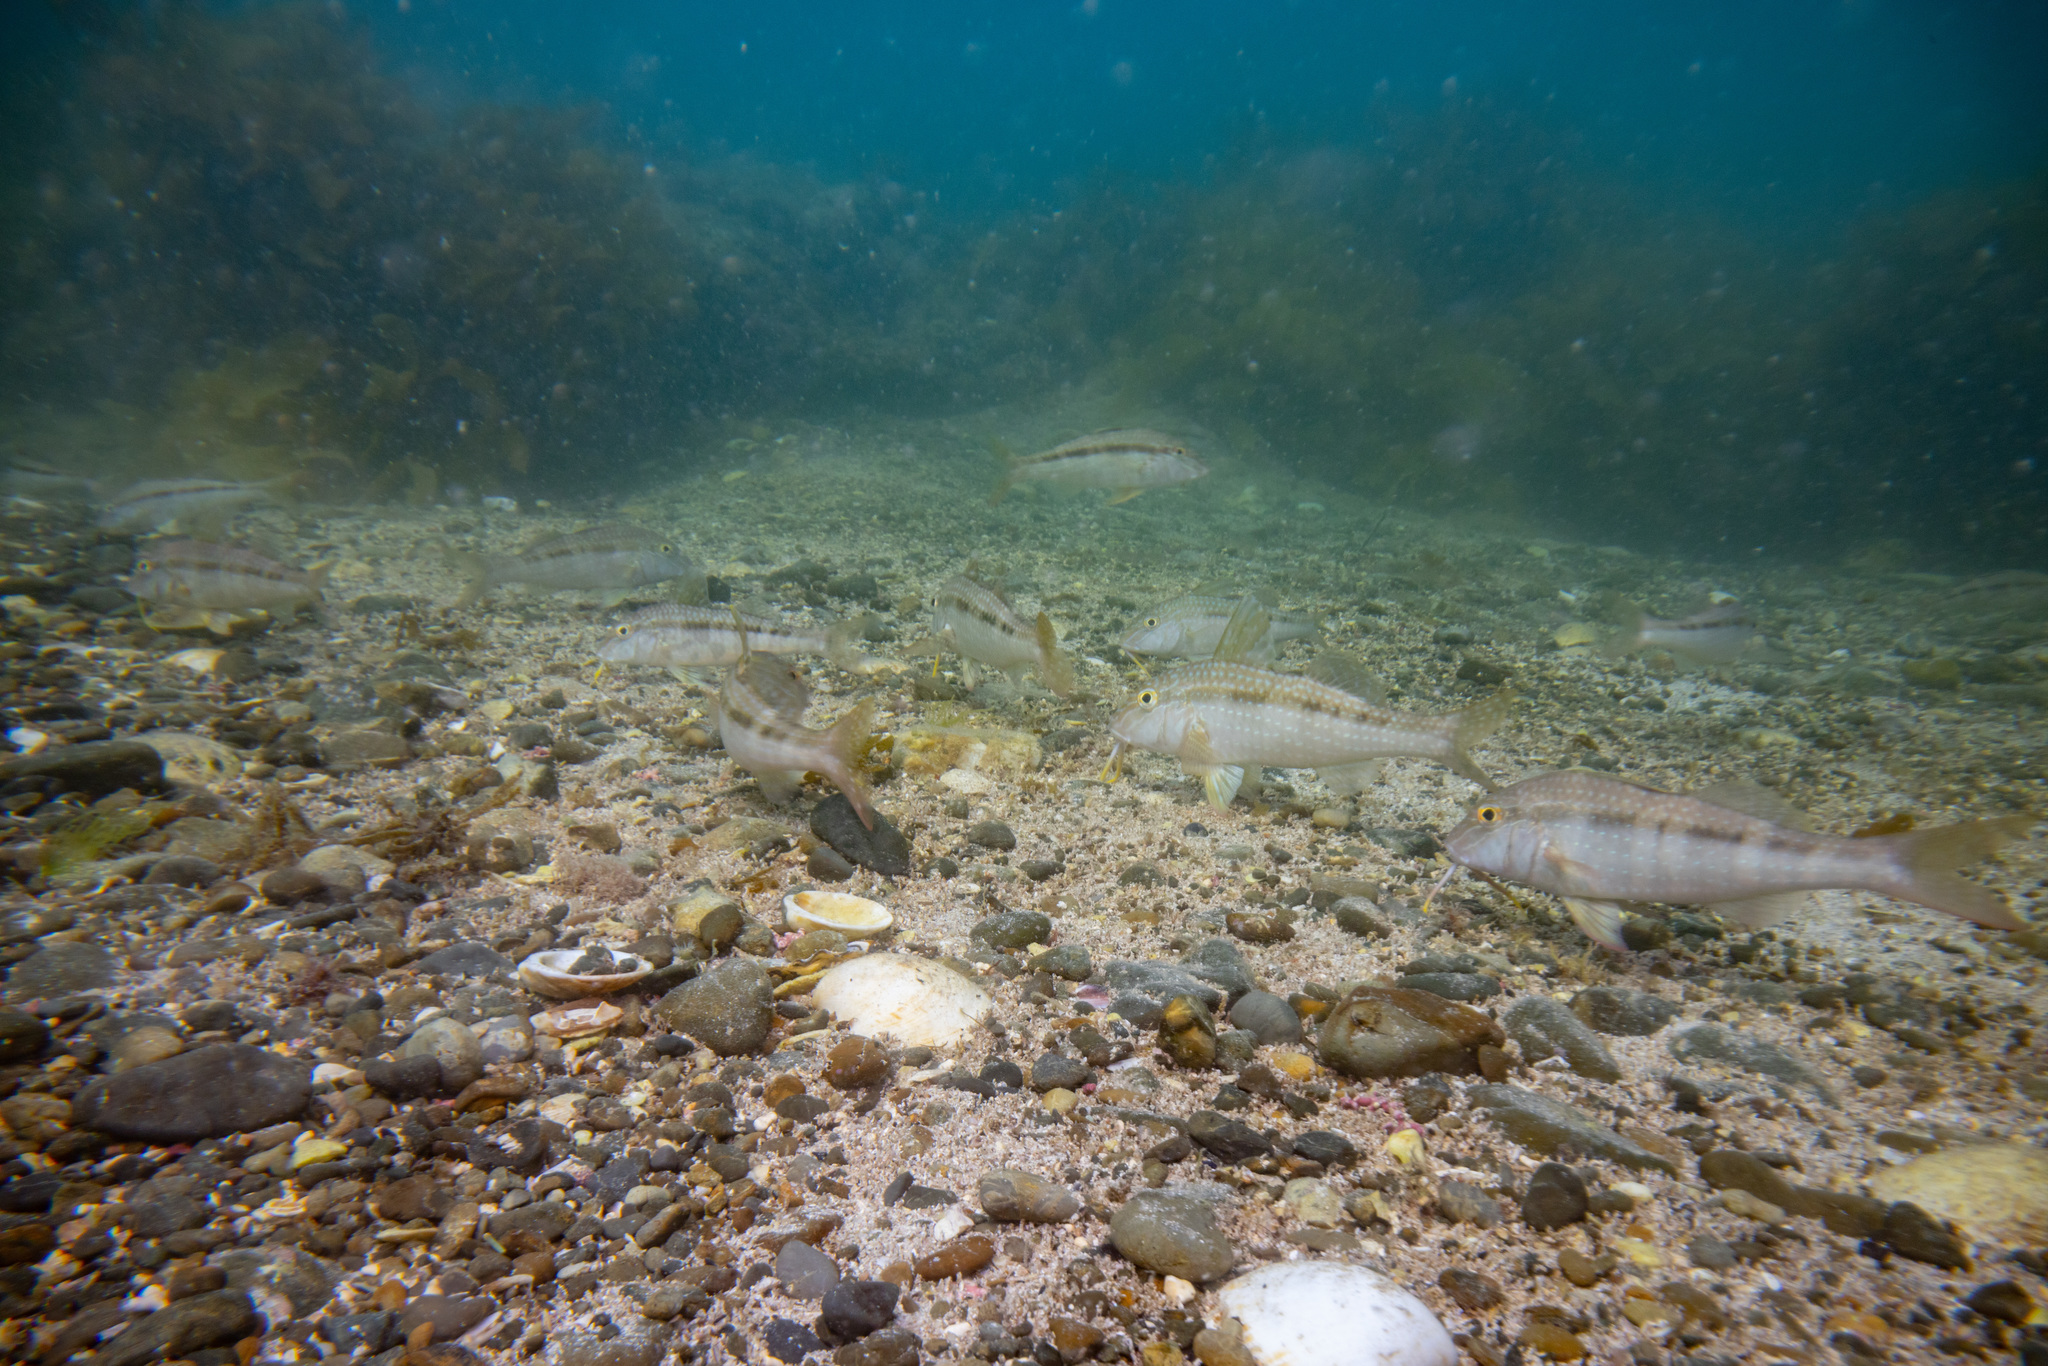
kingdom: Animalia
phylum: Chordata
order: Perciformes
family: Mullidae
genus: Upeneichthys
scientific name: Upeneichthys lineatus
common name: Red mullet
